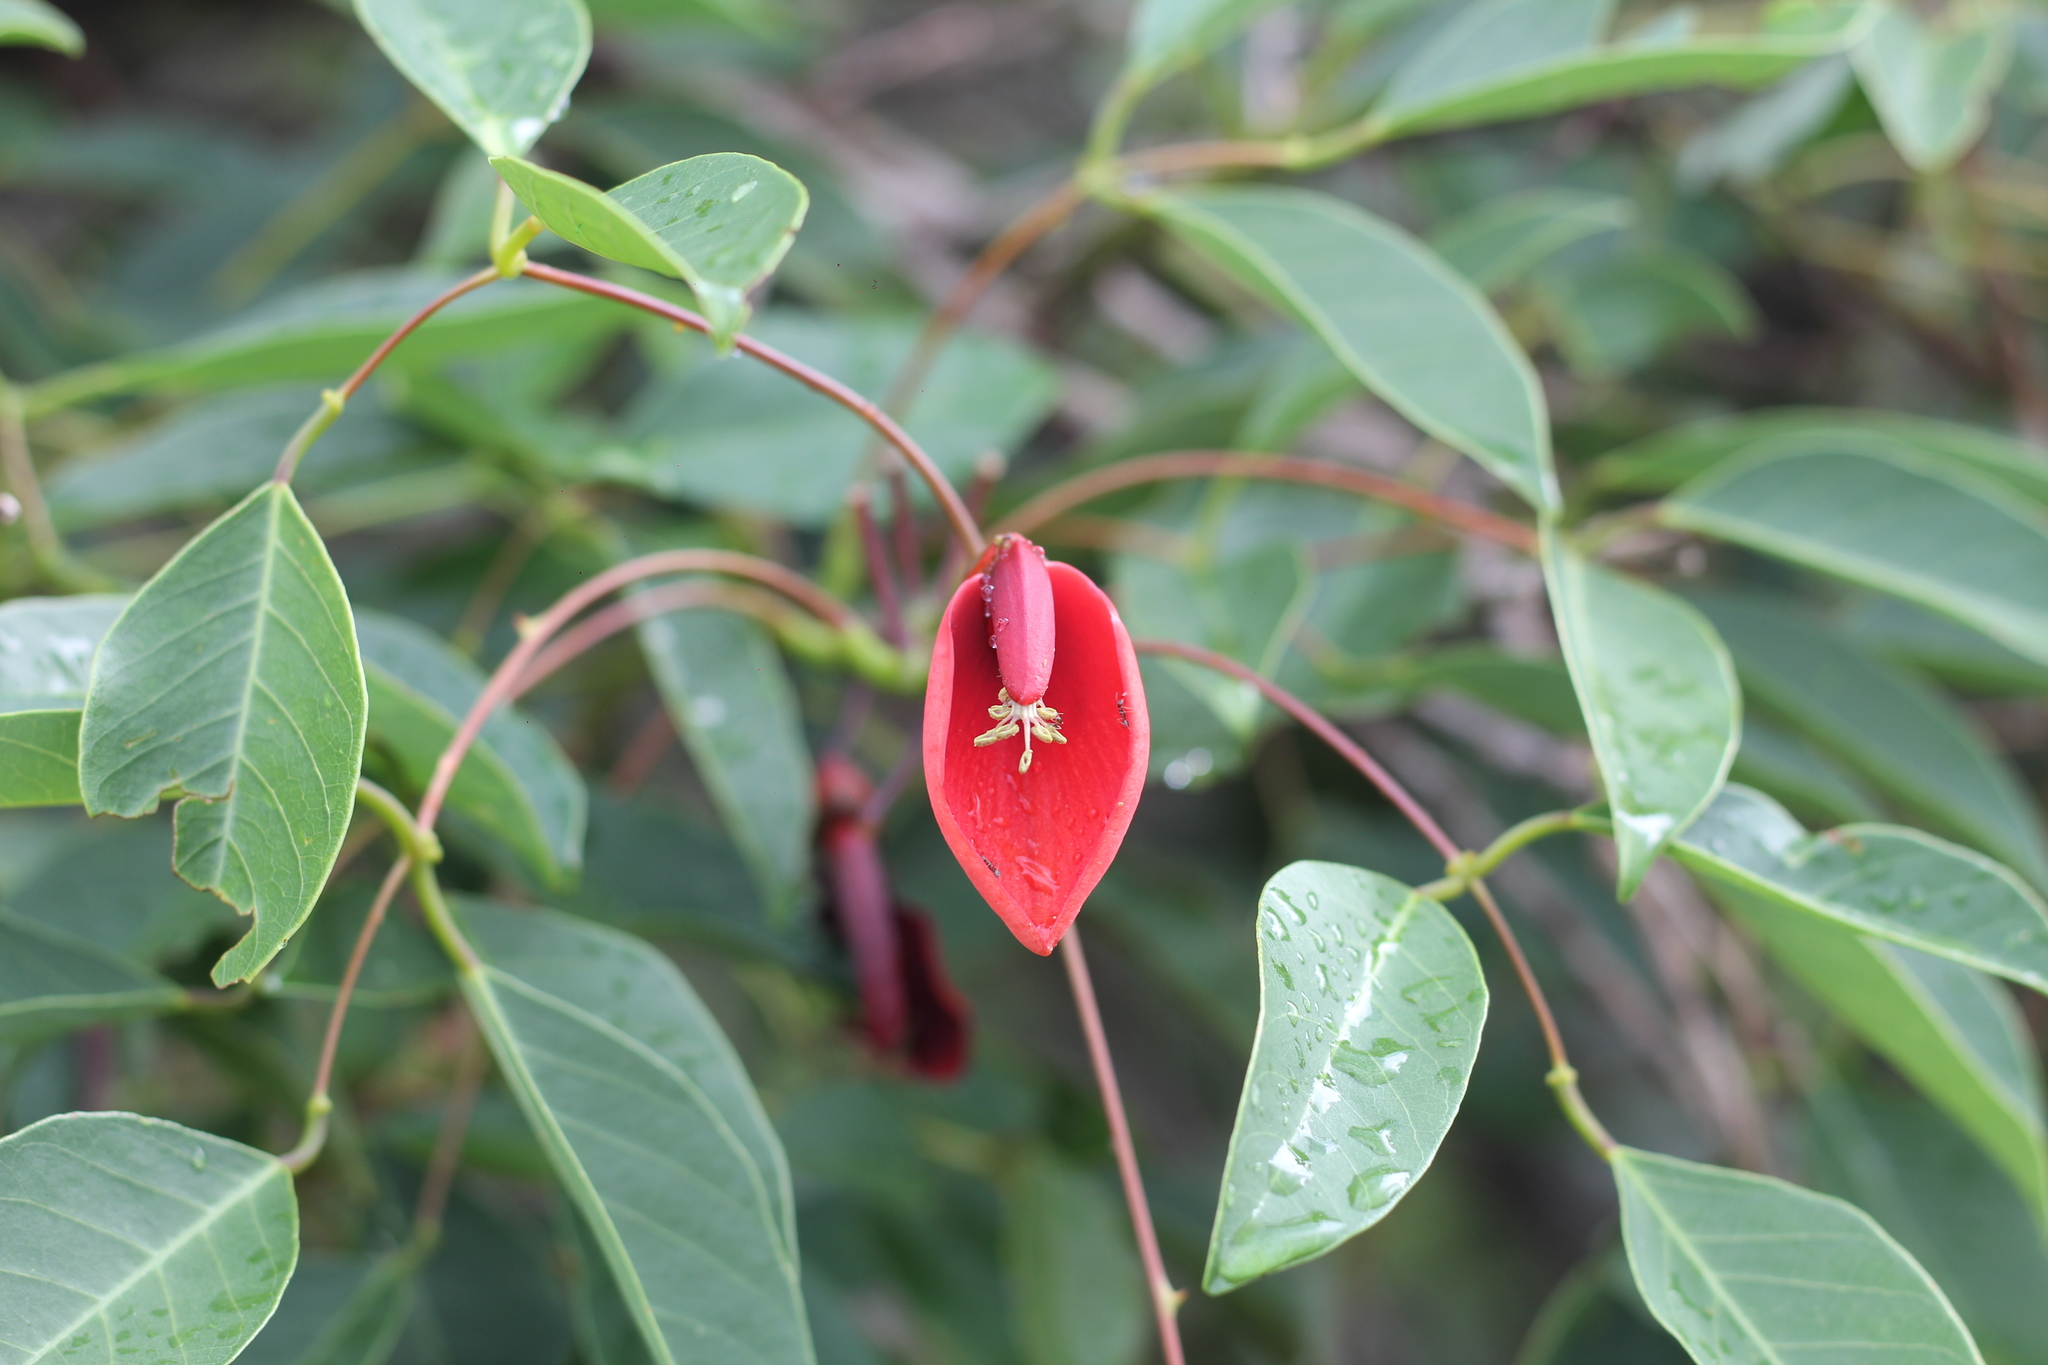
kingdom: Plantae
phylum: Tracheophyta
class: Magnoliopsida
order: Fabales
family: Fabaceae
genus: Erythrina
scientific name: Erythrina crista-galli
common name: Cockspur coral tree
